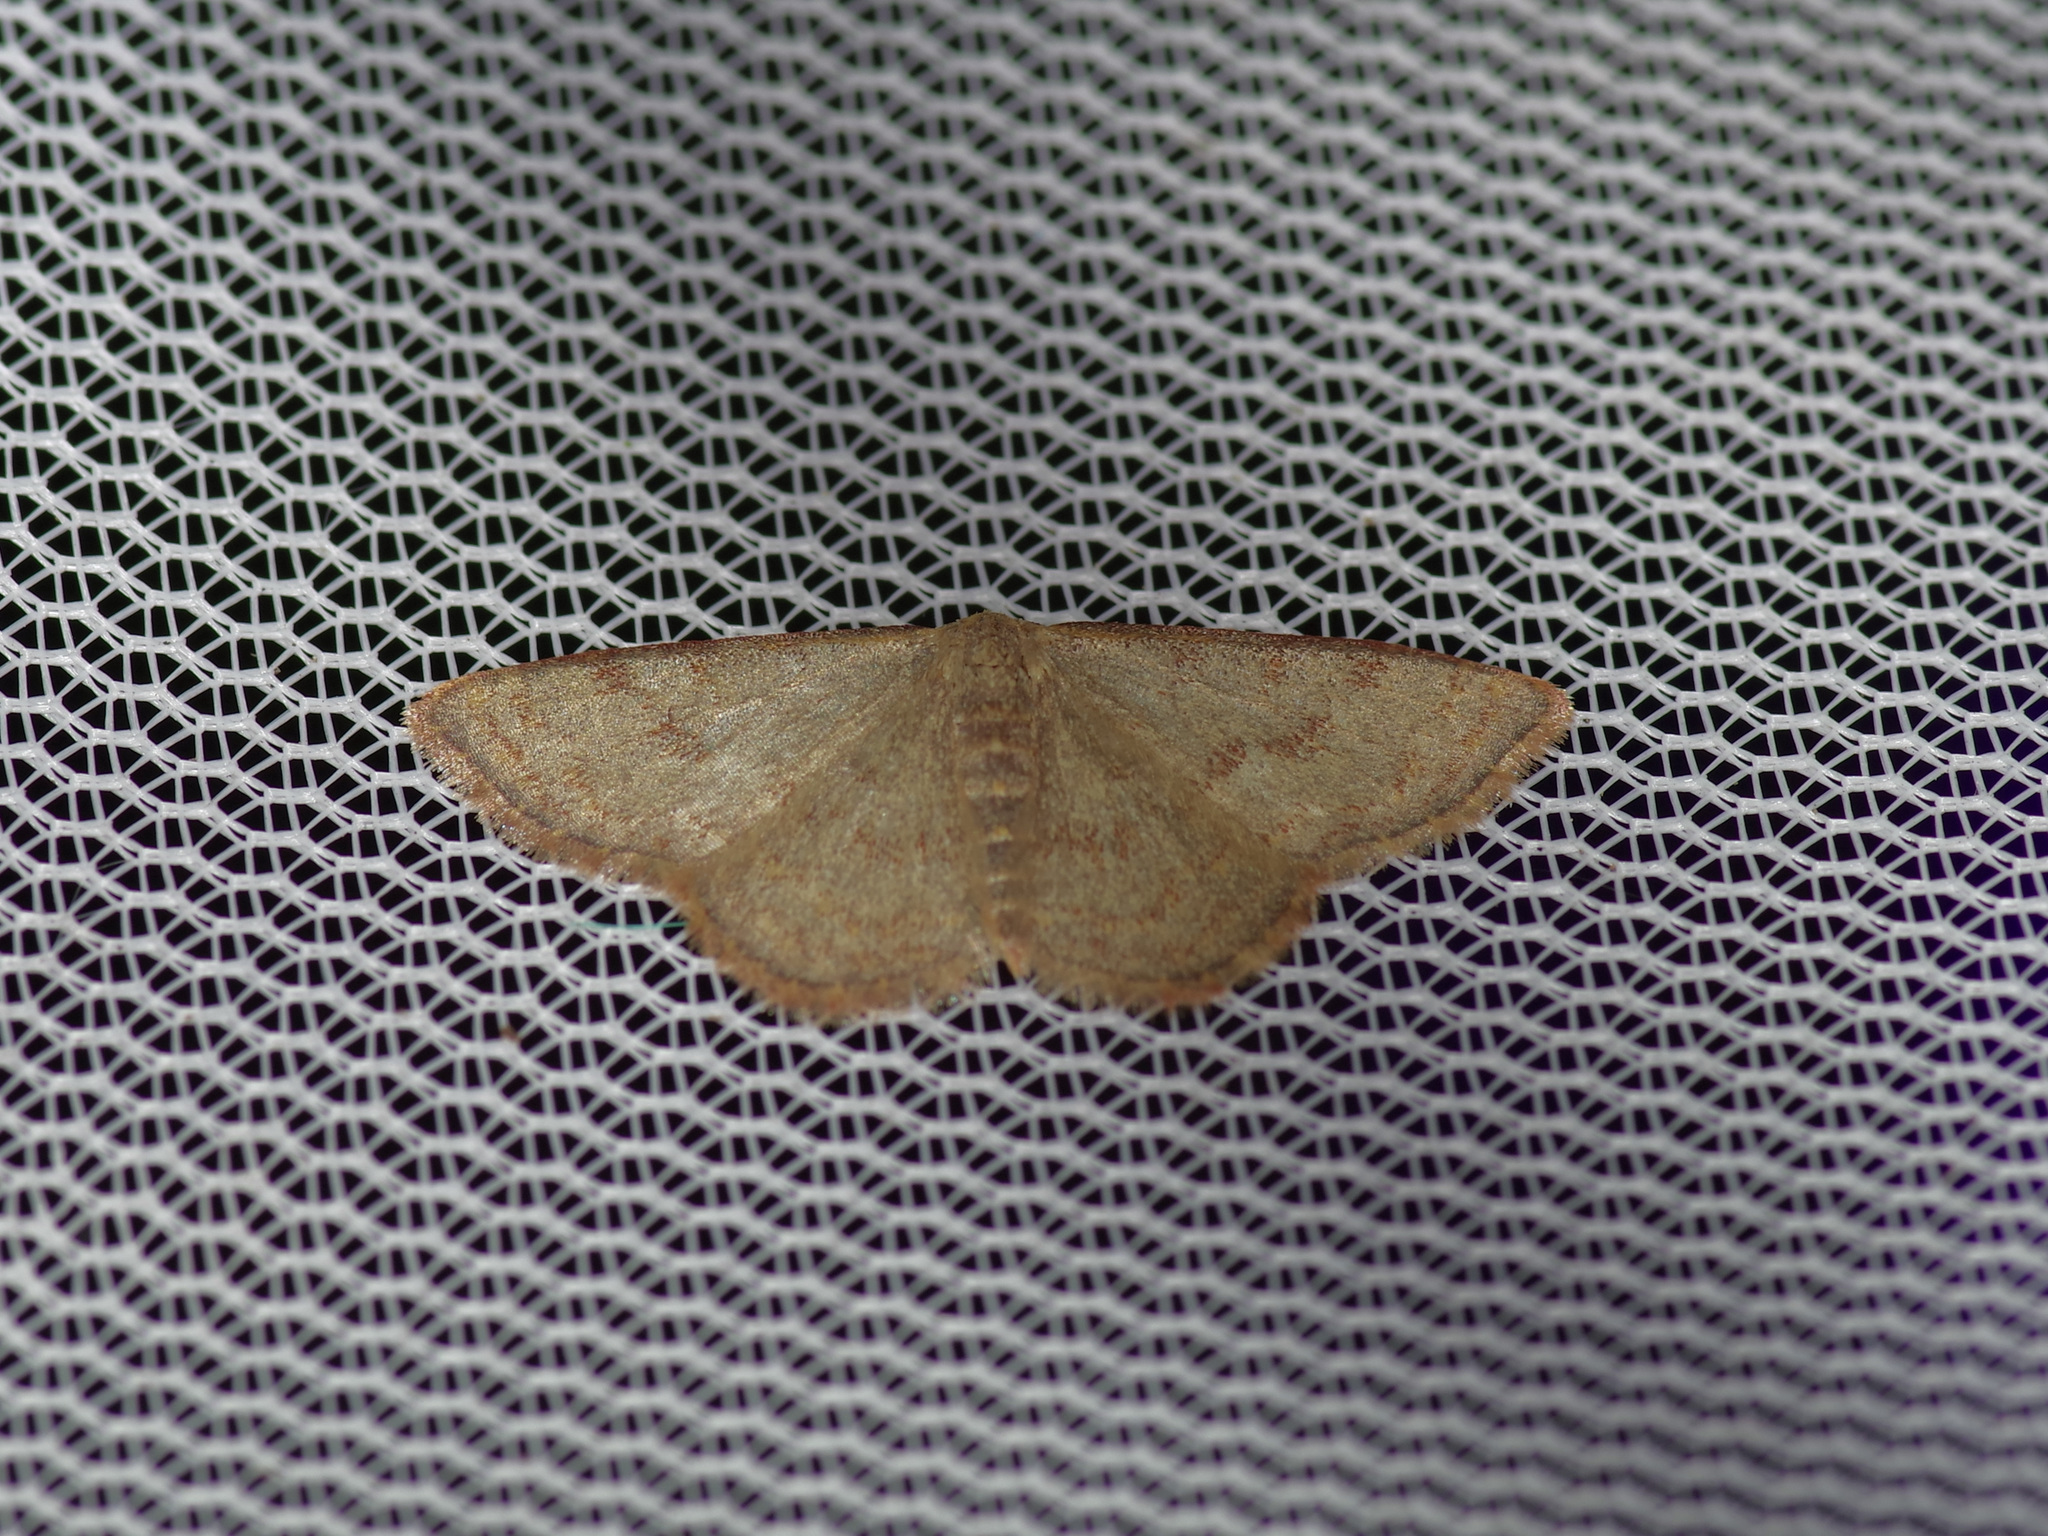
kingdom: Animalia
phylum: Arthropoda
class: Insecta
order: Lepidoptera
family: Geometridae
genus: Leptostales
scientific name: Leptostales pannaria
